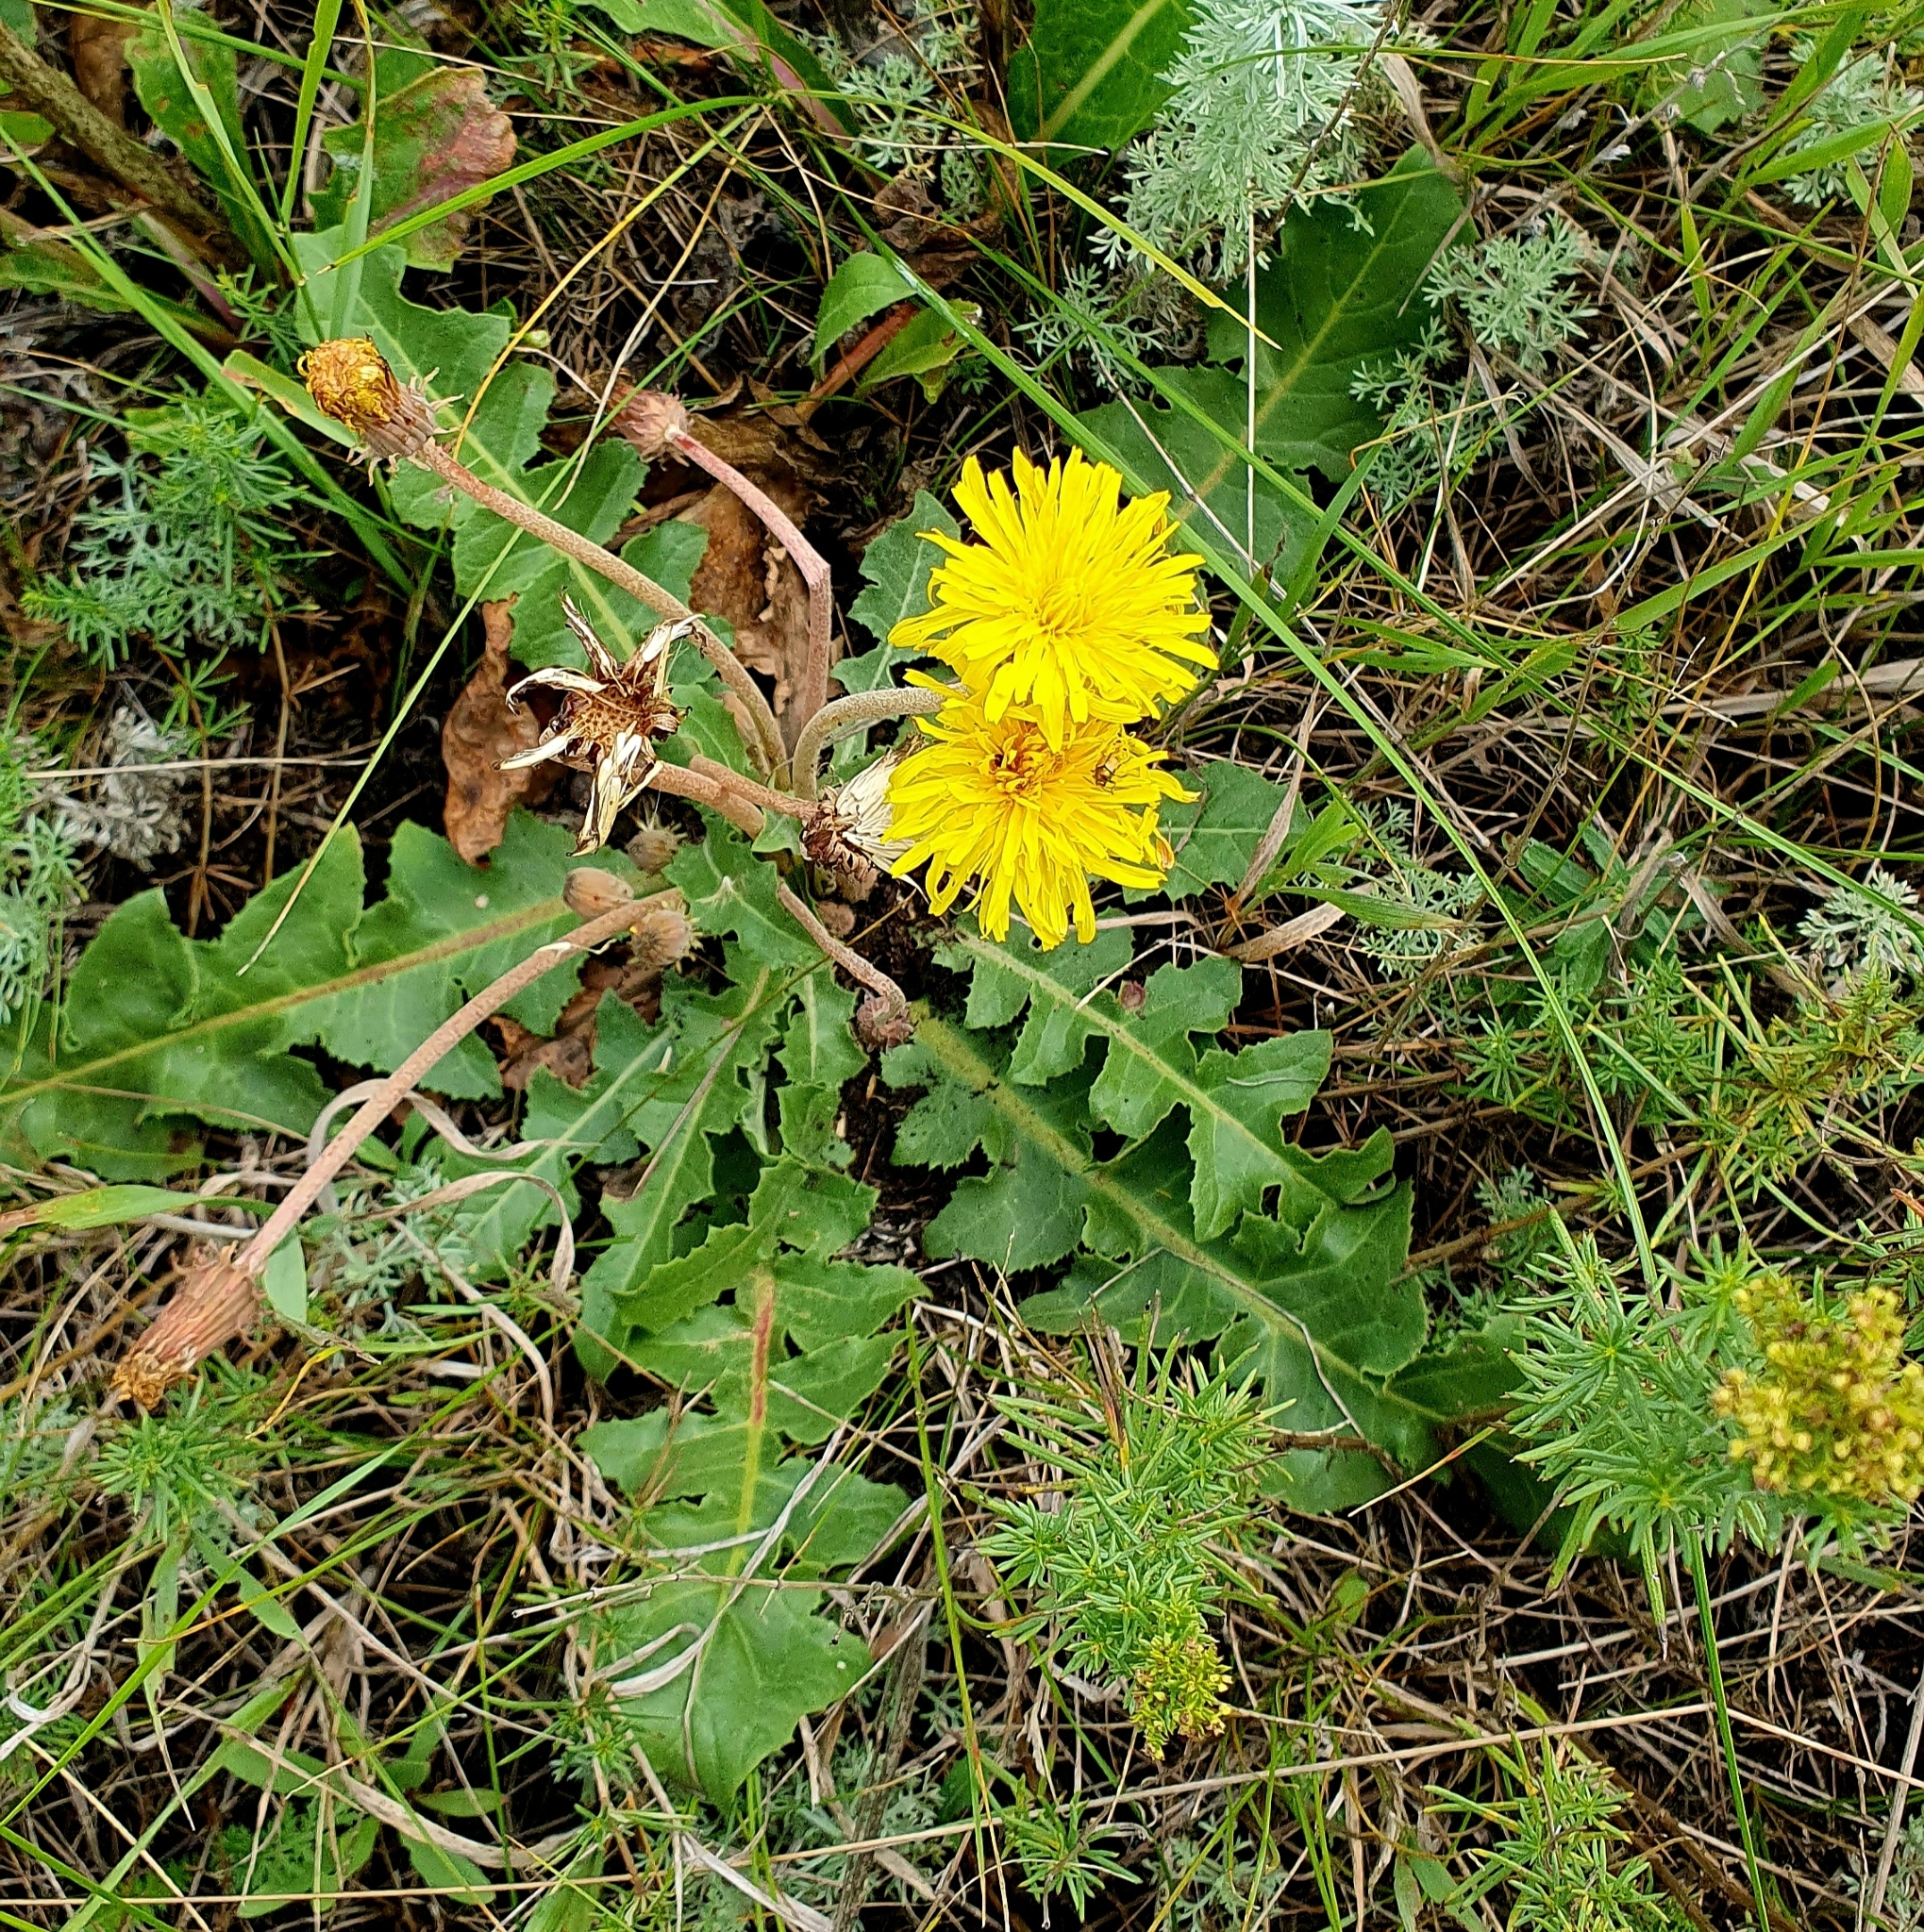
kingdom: Plantae
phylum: Tracheophyta
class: Magnoliopsida
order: Asterales
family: Asteraceae
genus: Taraxacum
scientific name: Taraxacum serotinum
